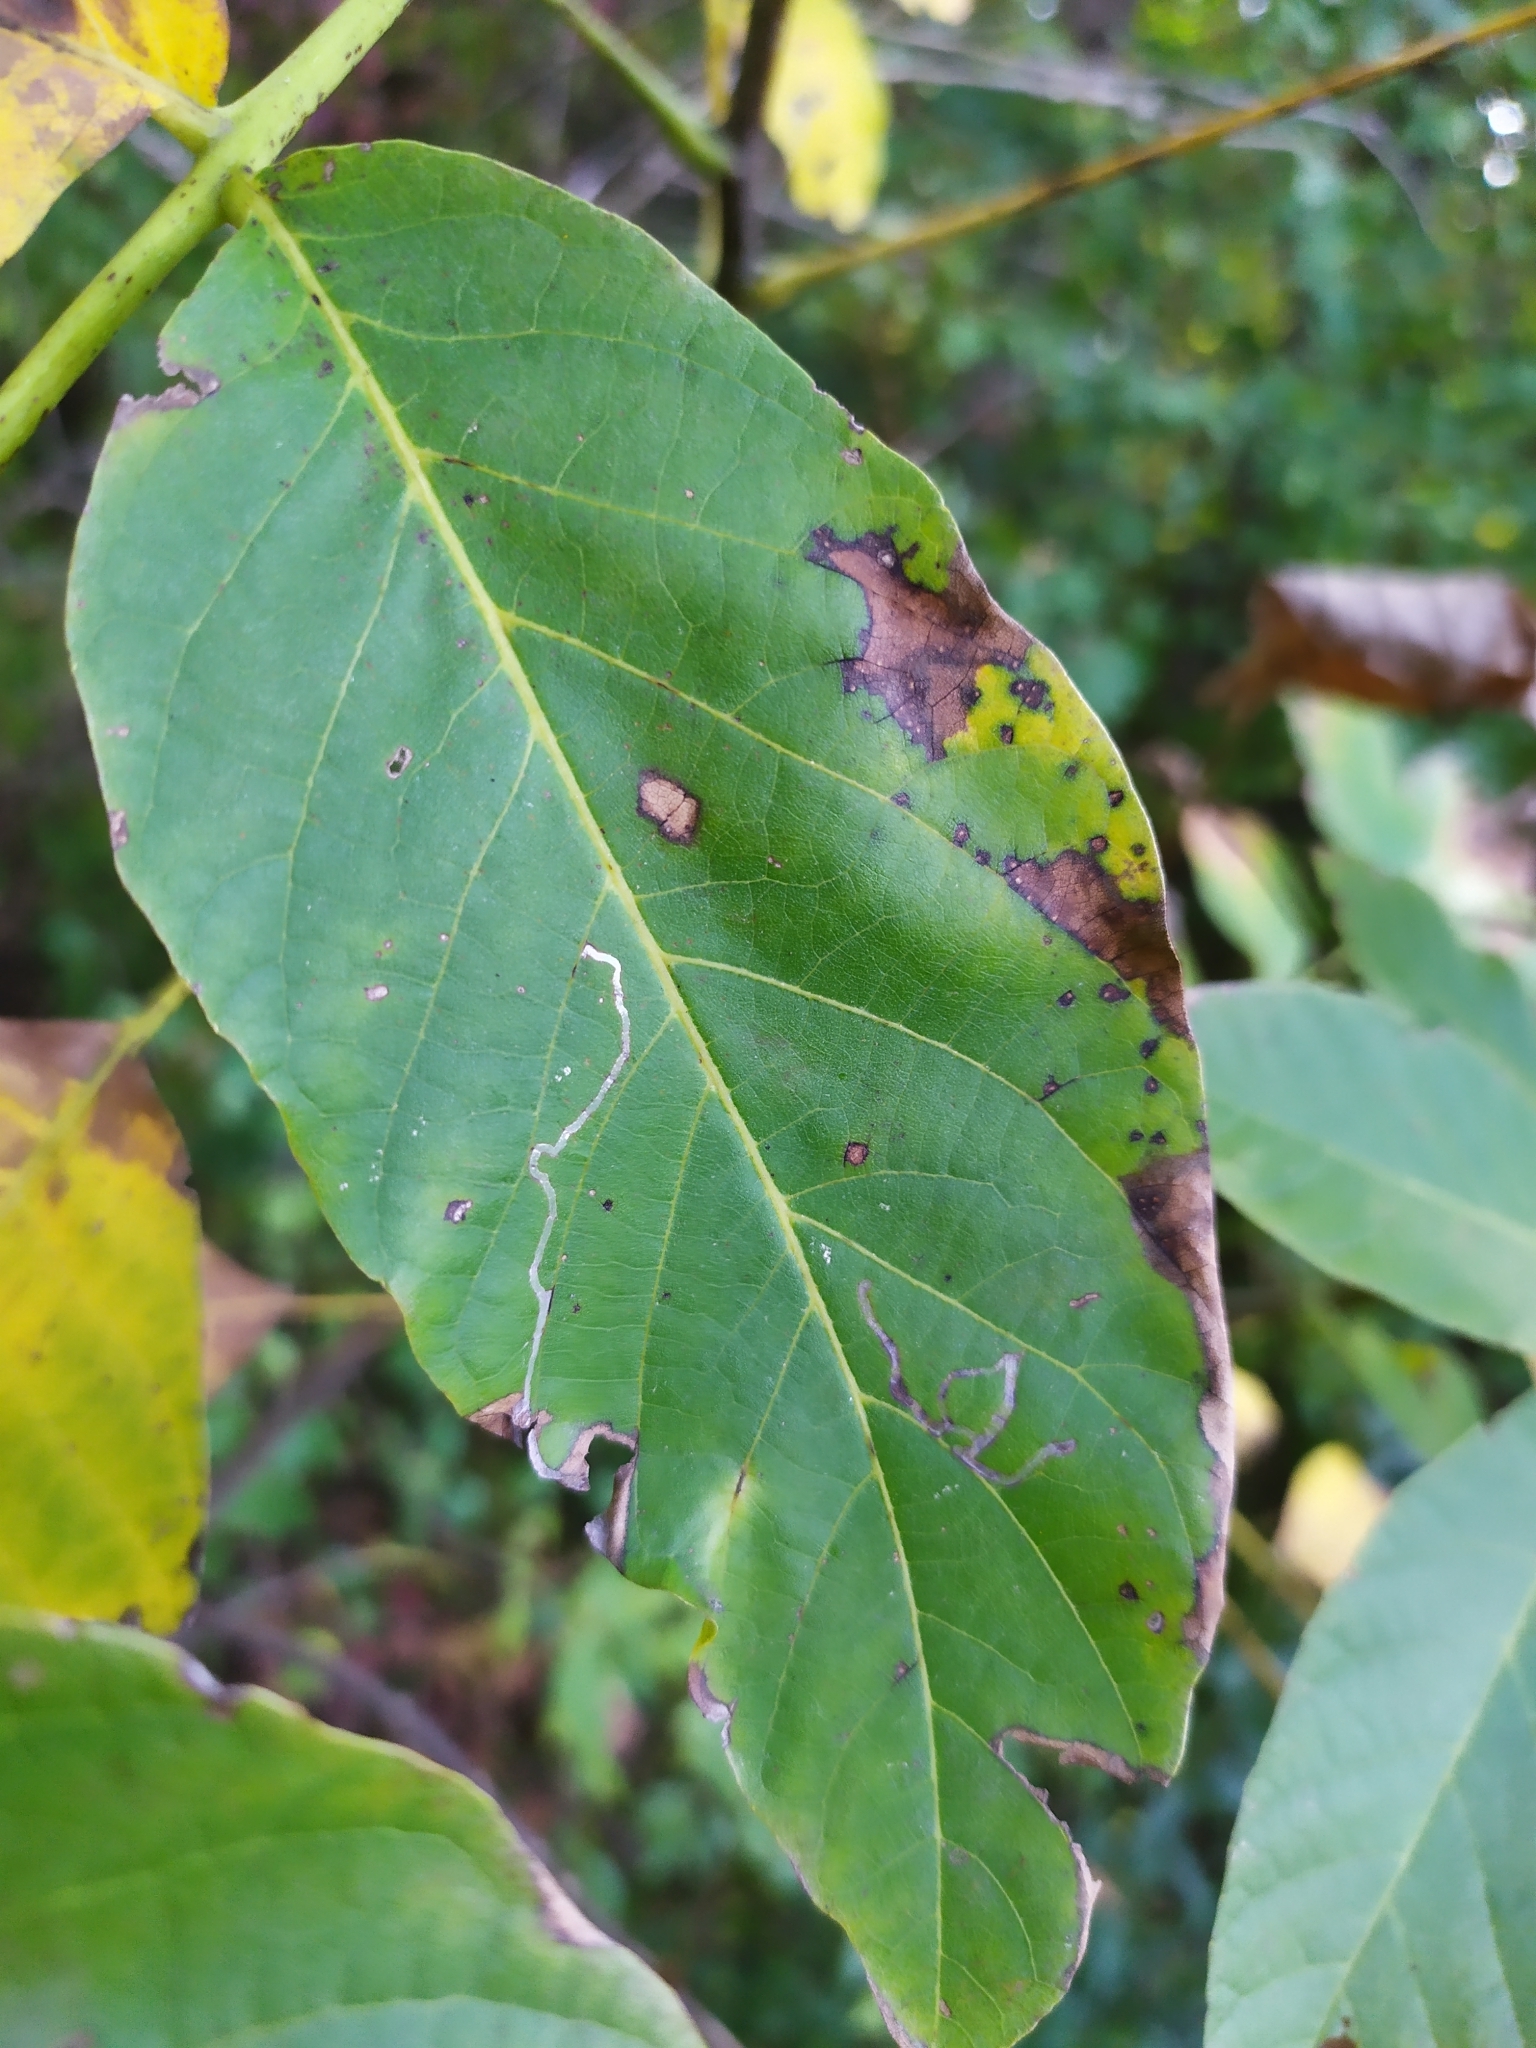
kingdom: Animalia
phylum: Arthropoda
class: Insecta
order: Lepidoptera
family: Gracillariidae
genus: Caloptilia
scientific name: Caloptilia roscipennella
